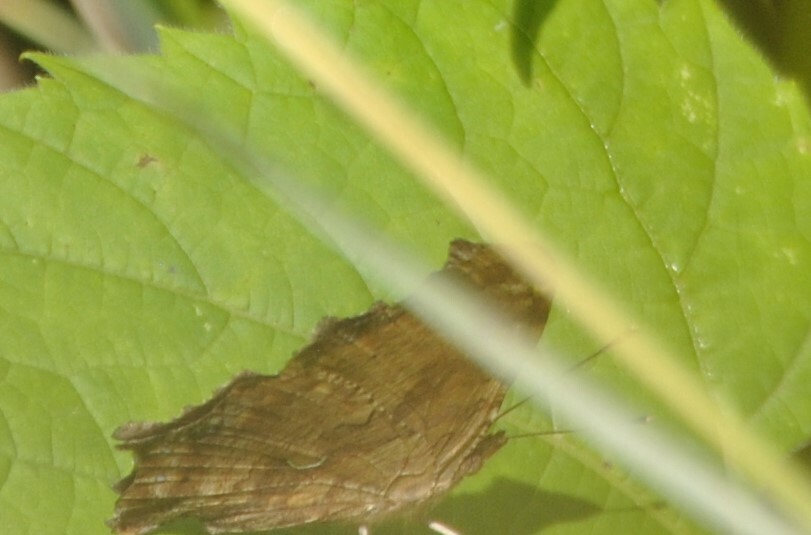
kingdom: Animalia
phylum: Arthropoda
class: Insecta
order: Lepidoptera
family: Nymphalidae
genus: Polygonia
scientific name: Polygonia comma
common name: Eastern comma
